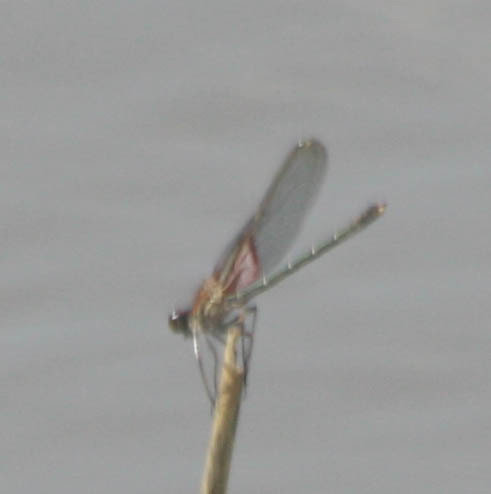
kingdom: Animalia
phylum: Arthropoda
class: Insecta
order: Odonata
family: Calopterygidae
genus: Hetaerina
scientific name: Hetaerina americana
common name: American rubyspot
